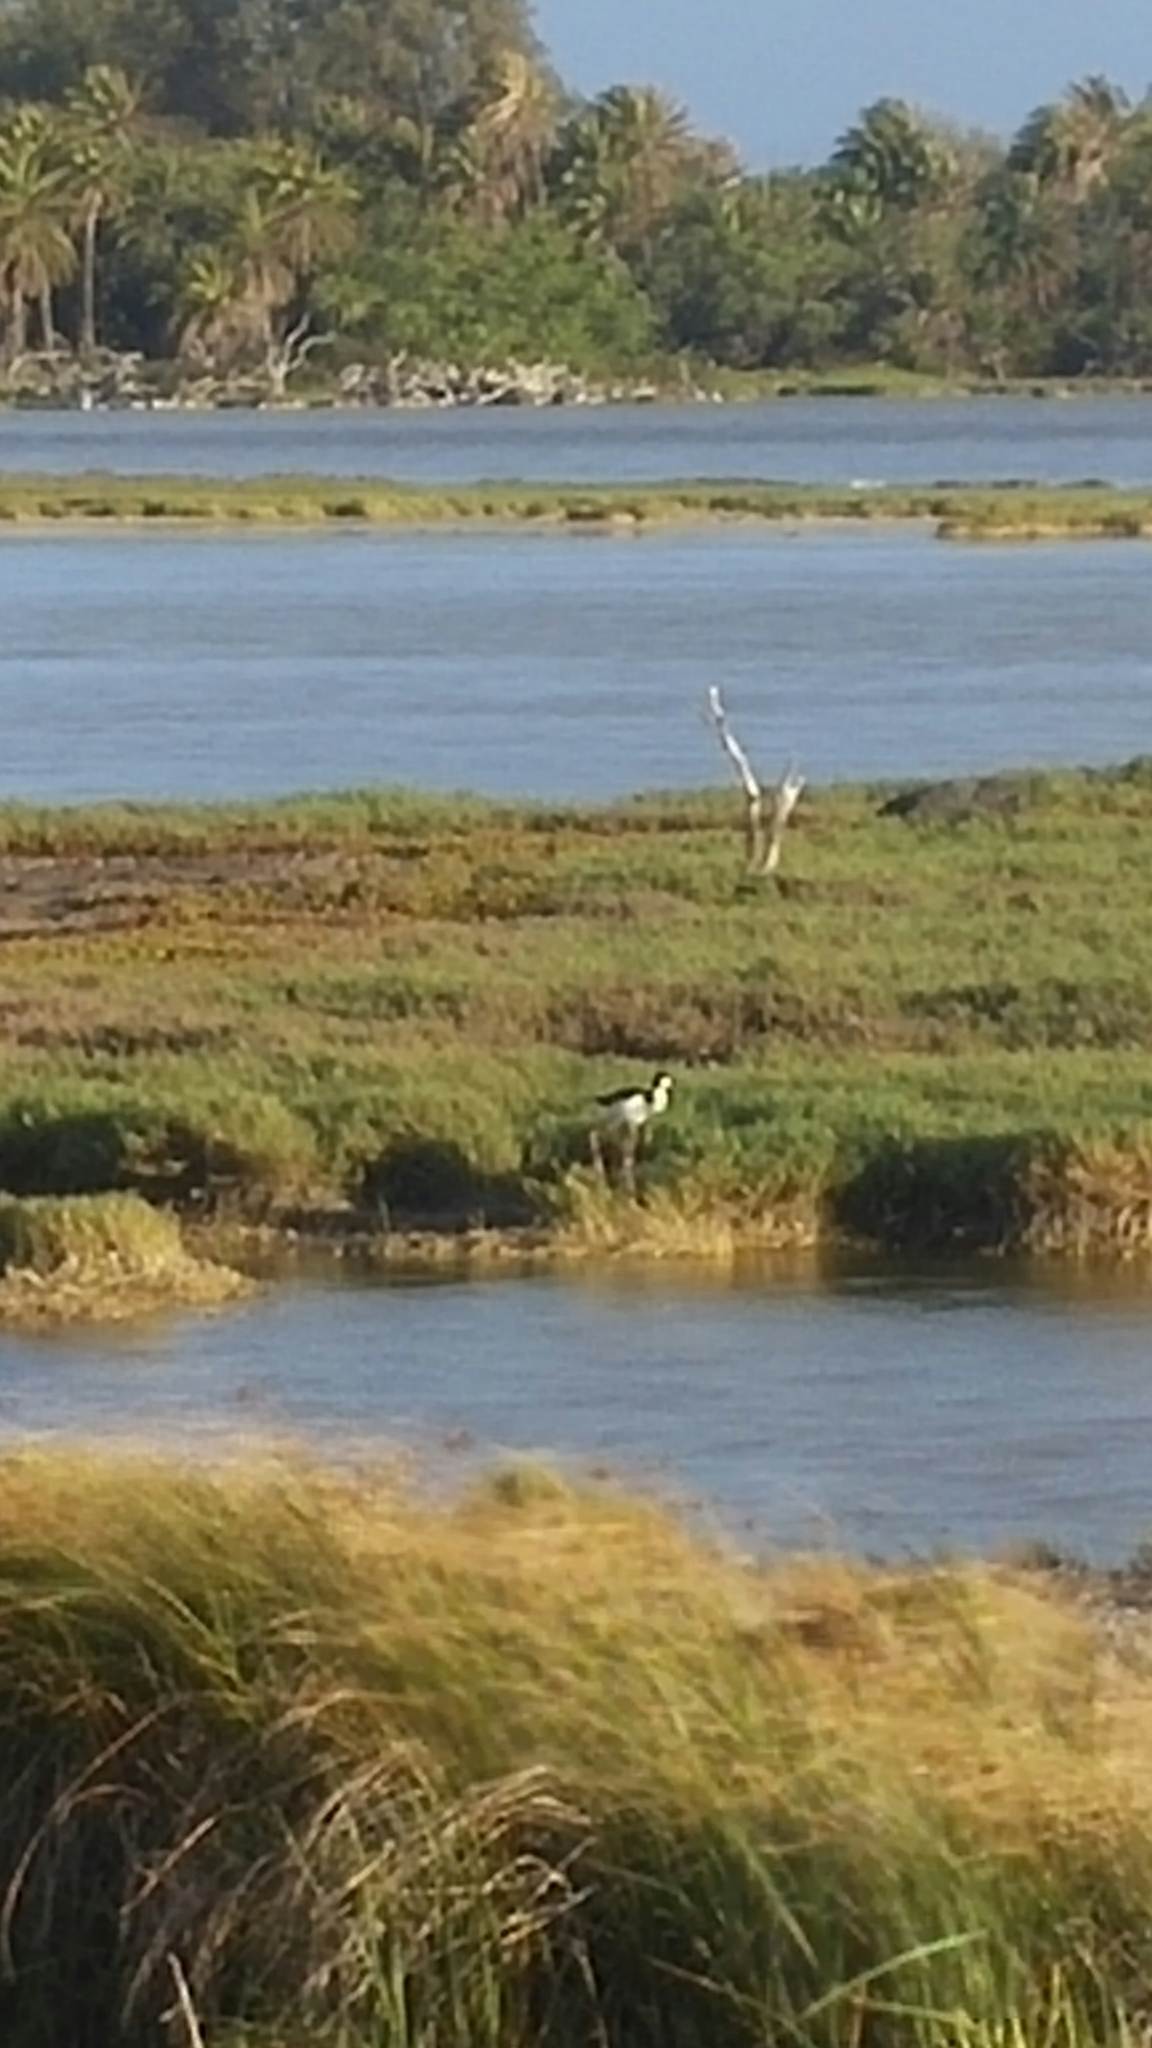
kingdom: Animalia
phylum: Chordata
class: Aves
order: Charadriiformes
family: Recurvirostridae
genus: Himantopus
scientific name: Himantopus mexicanus
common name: Black-necked stilt
